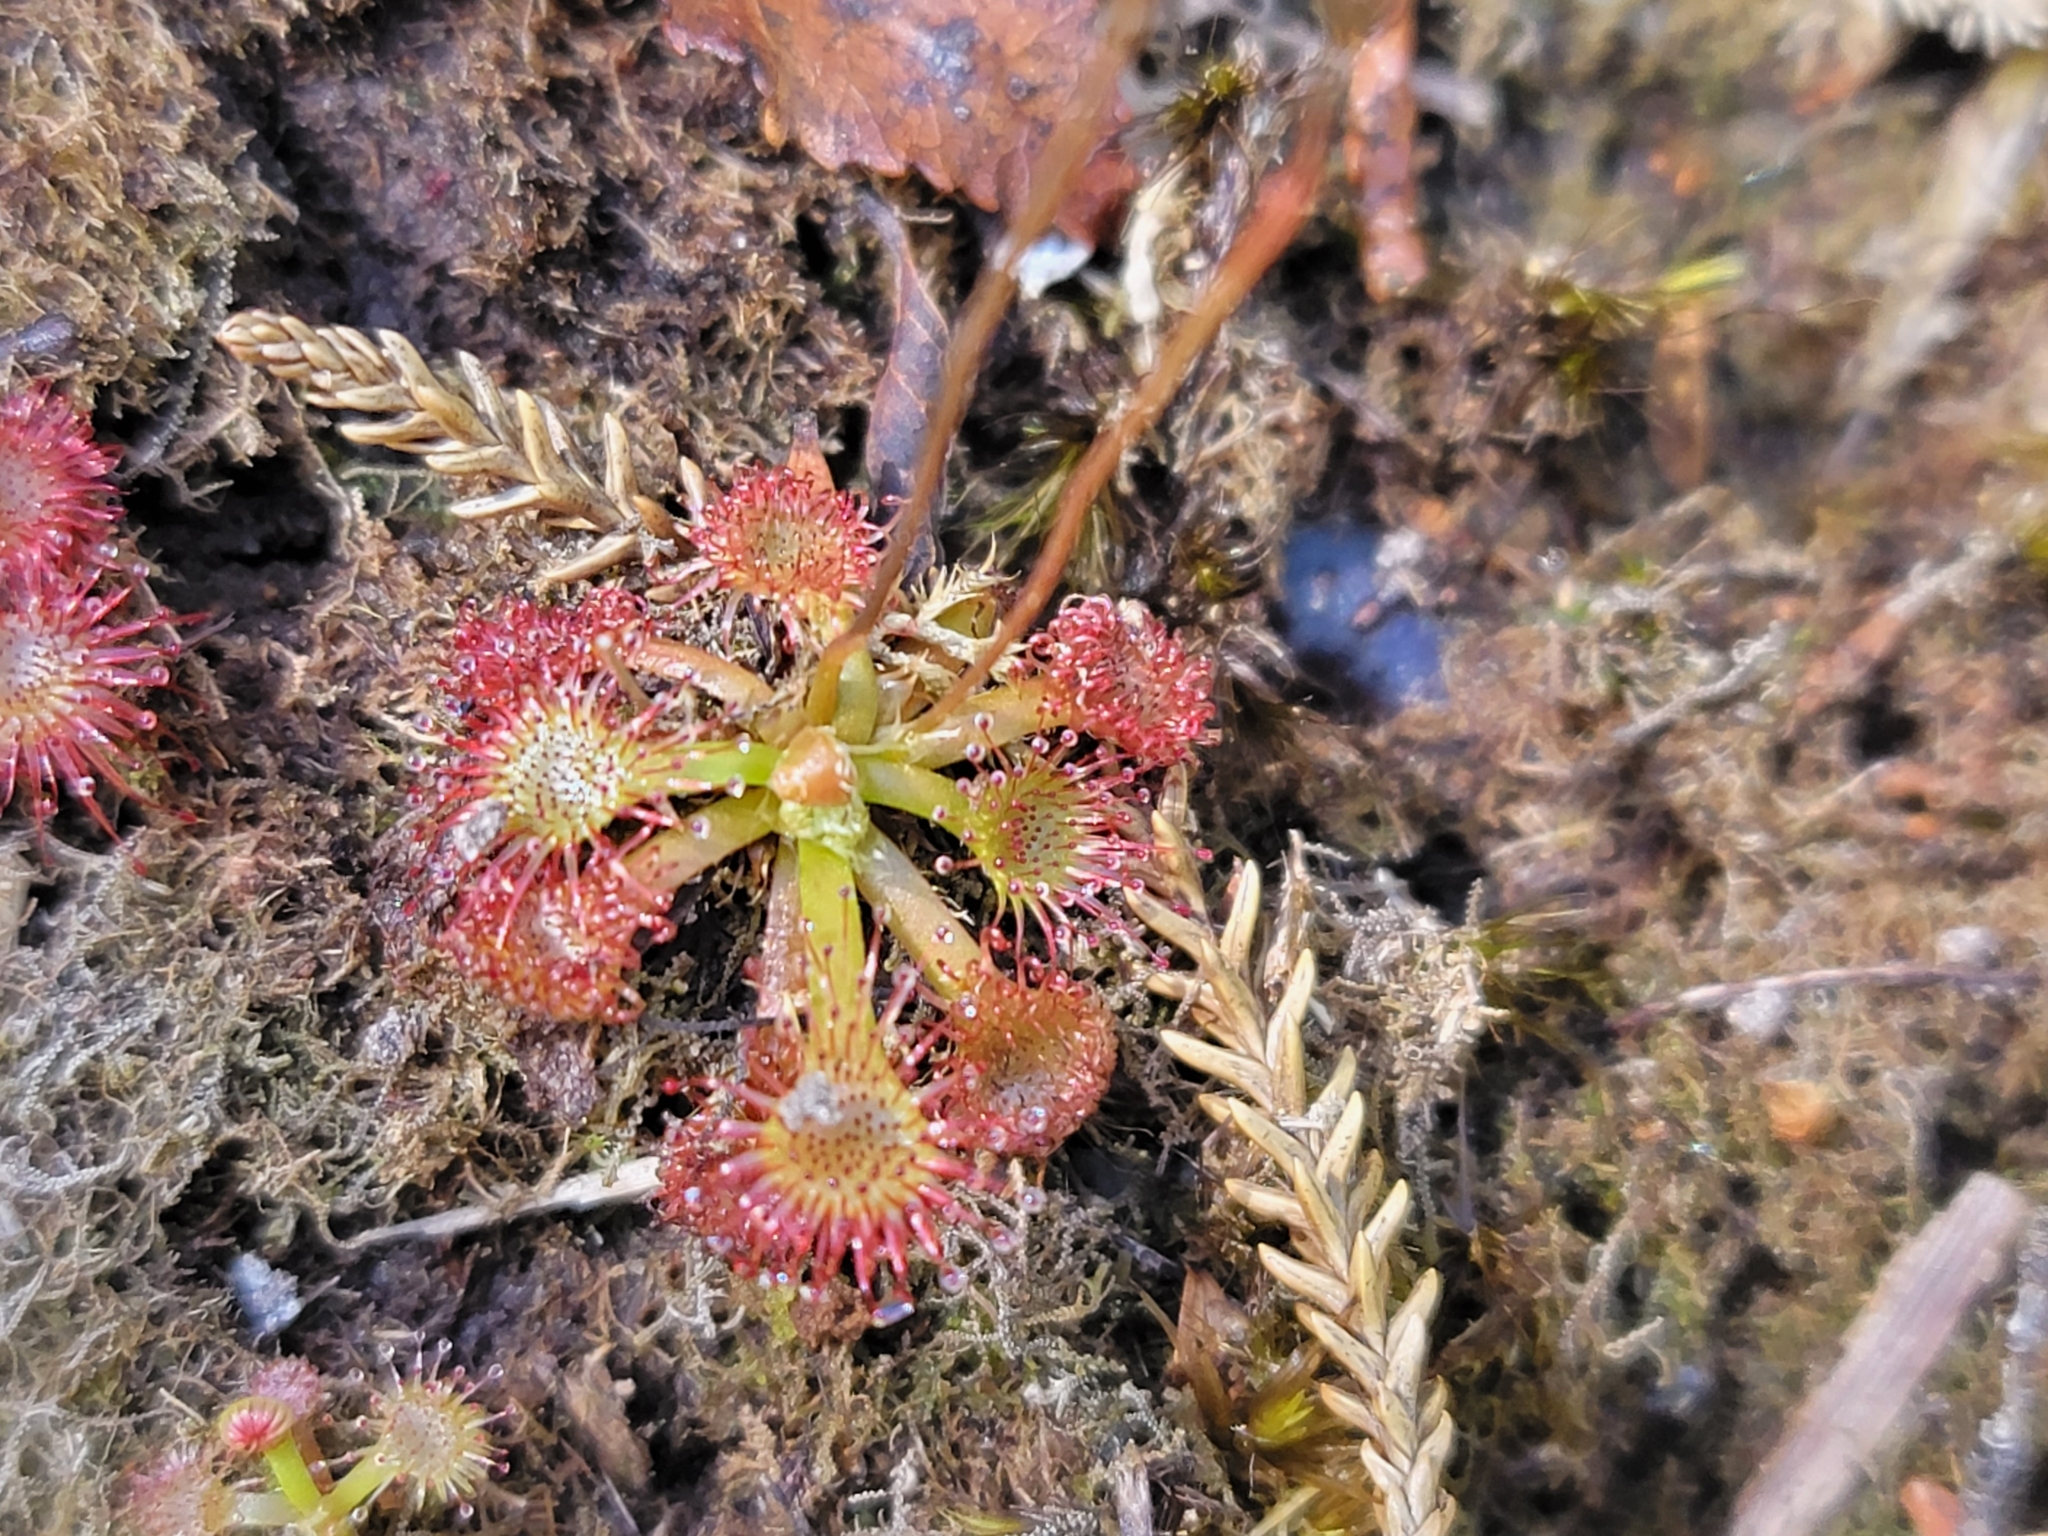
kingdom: Plantae
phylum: Tracheophyta
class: Magnoliopsida
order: Caryophyllales
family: Droseraceae
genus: Drosera
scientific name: Drosera spatulata
